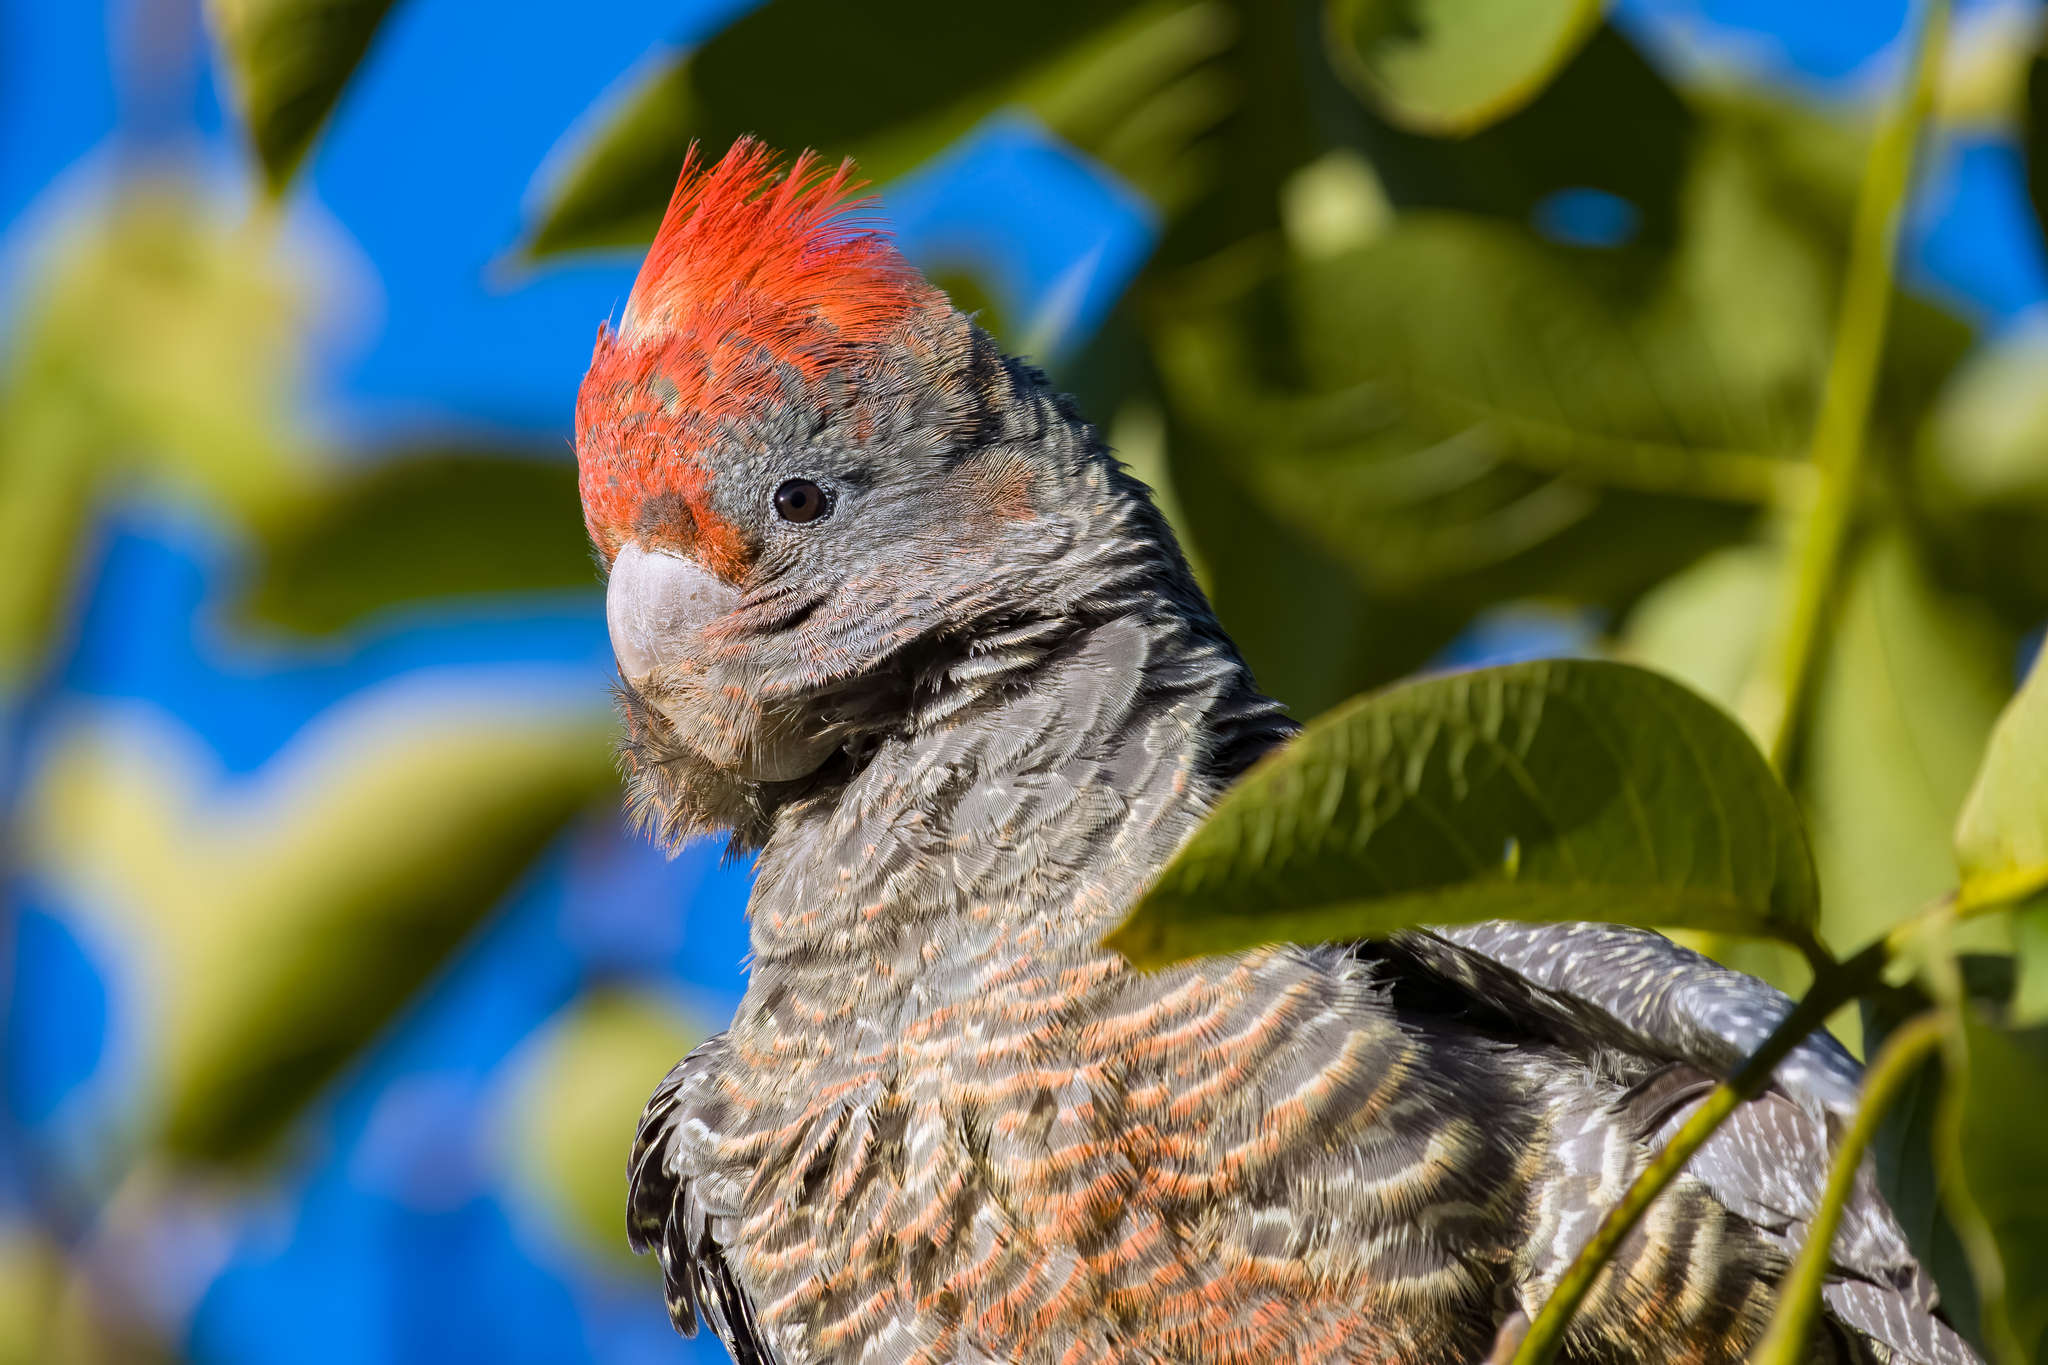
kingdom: Animalia
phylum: Chordata
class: Aves
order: Psittaciformes
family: Psittacidae
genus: Callocephalon
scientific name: Callocephalon fimbriatum
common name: Gang-gang cockatoo
